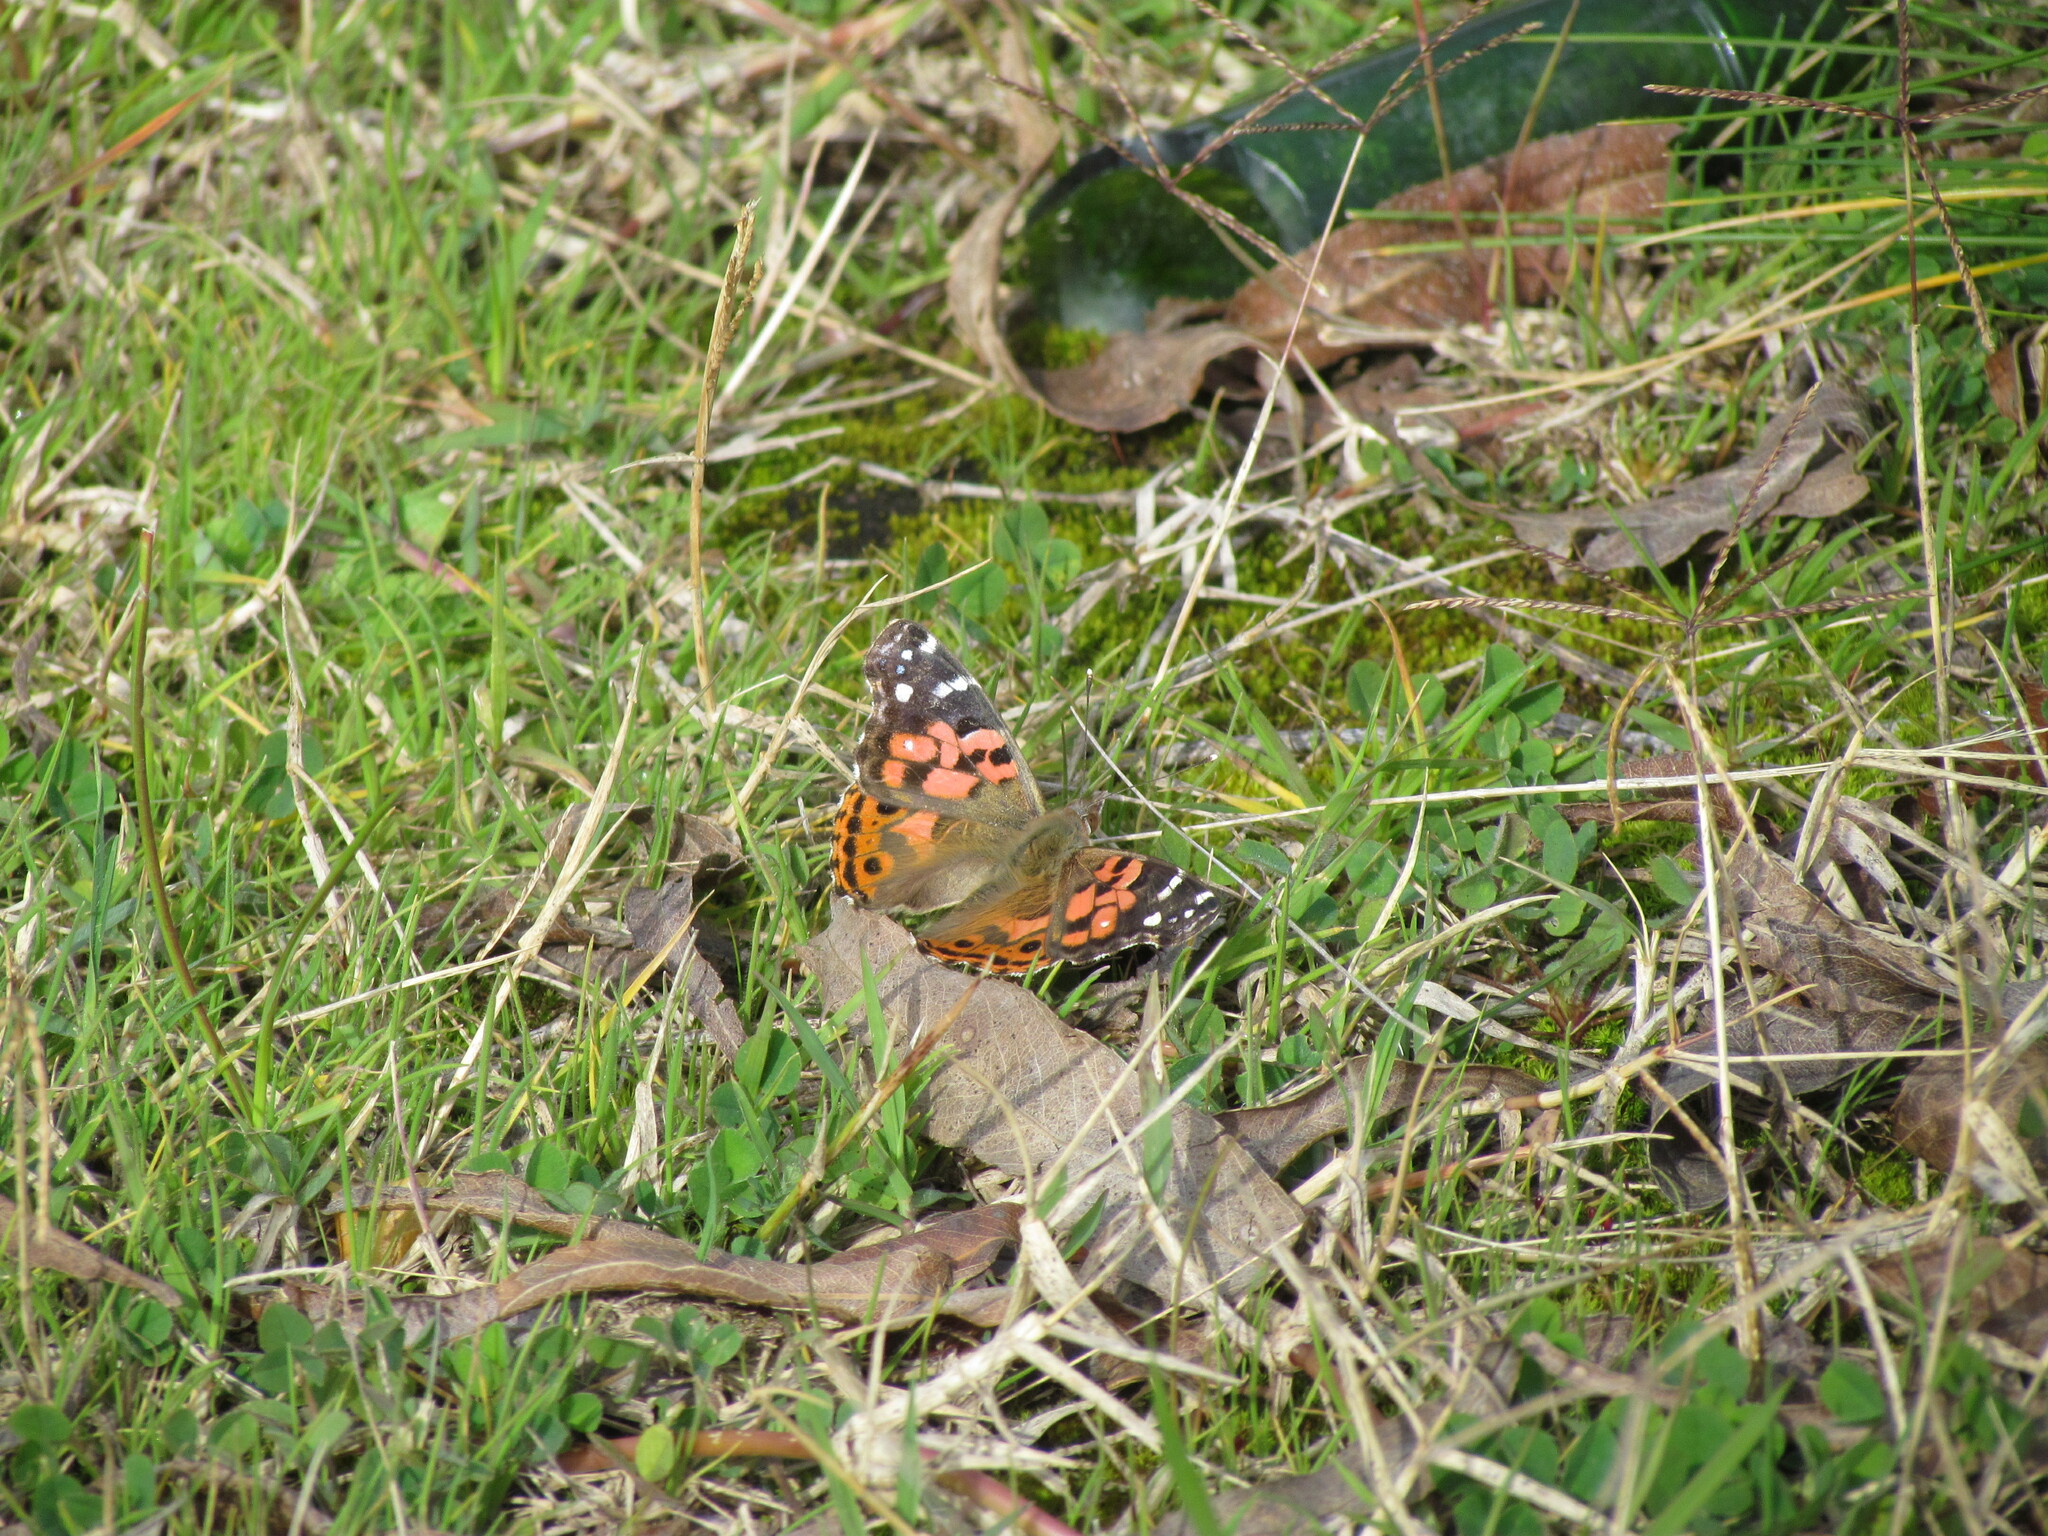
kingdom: Animalia
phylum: Arthropoda
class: Insecta
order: Lepidoptera
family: Nymphalidae
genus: Vanessa
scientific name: Vanessa braziliensis
